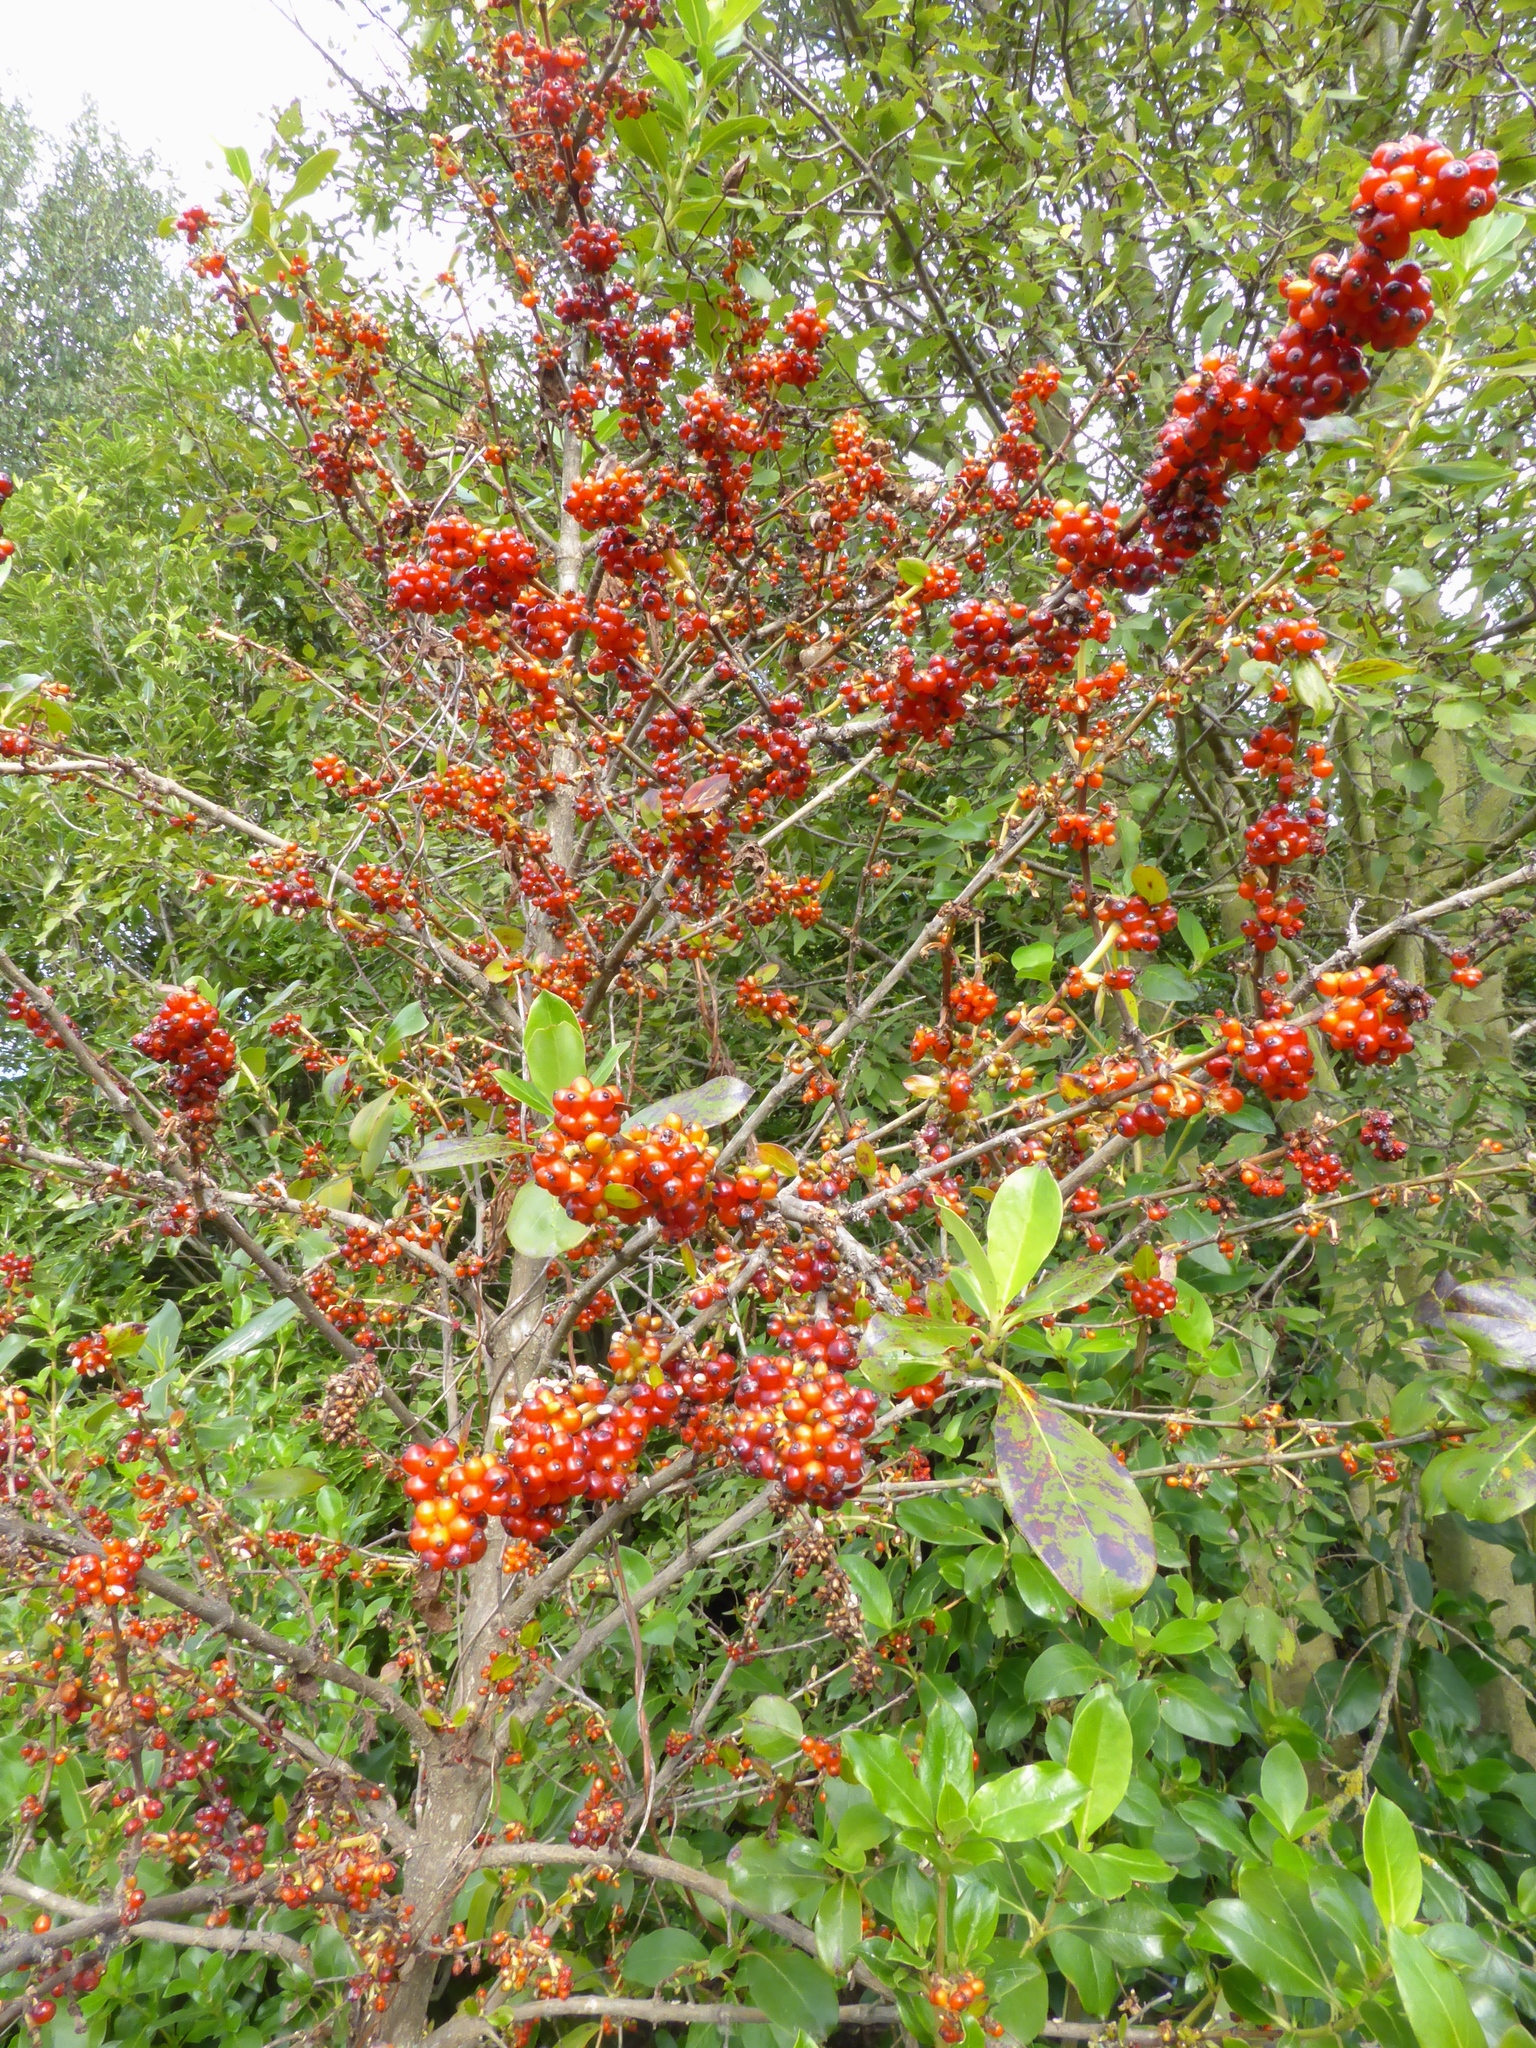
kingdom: Plantae
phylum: Tracheophyta
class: Magnoliopsida
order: Gentianales
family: Rubiaceae
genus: Coprosma
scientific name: Coprosma robusta
